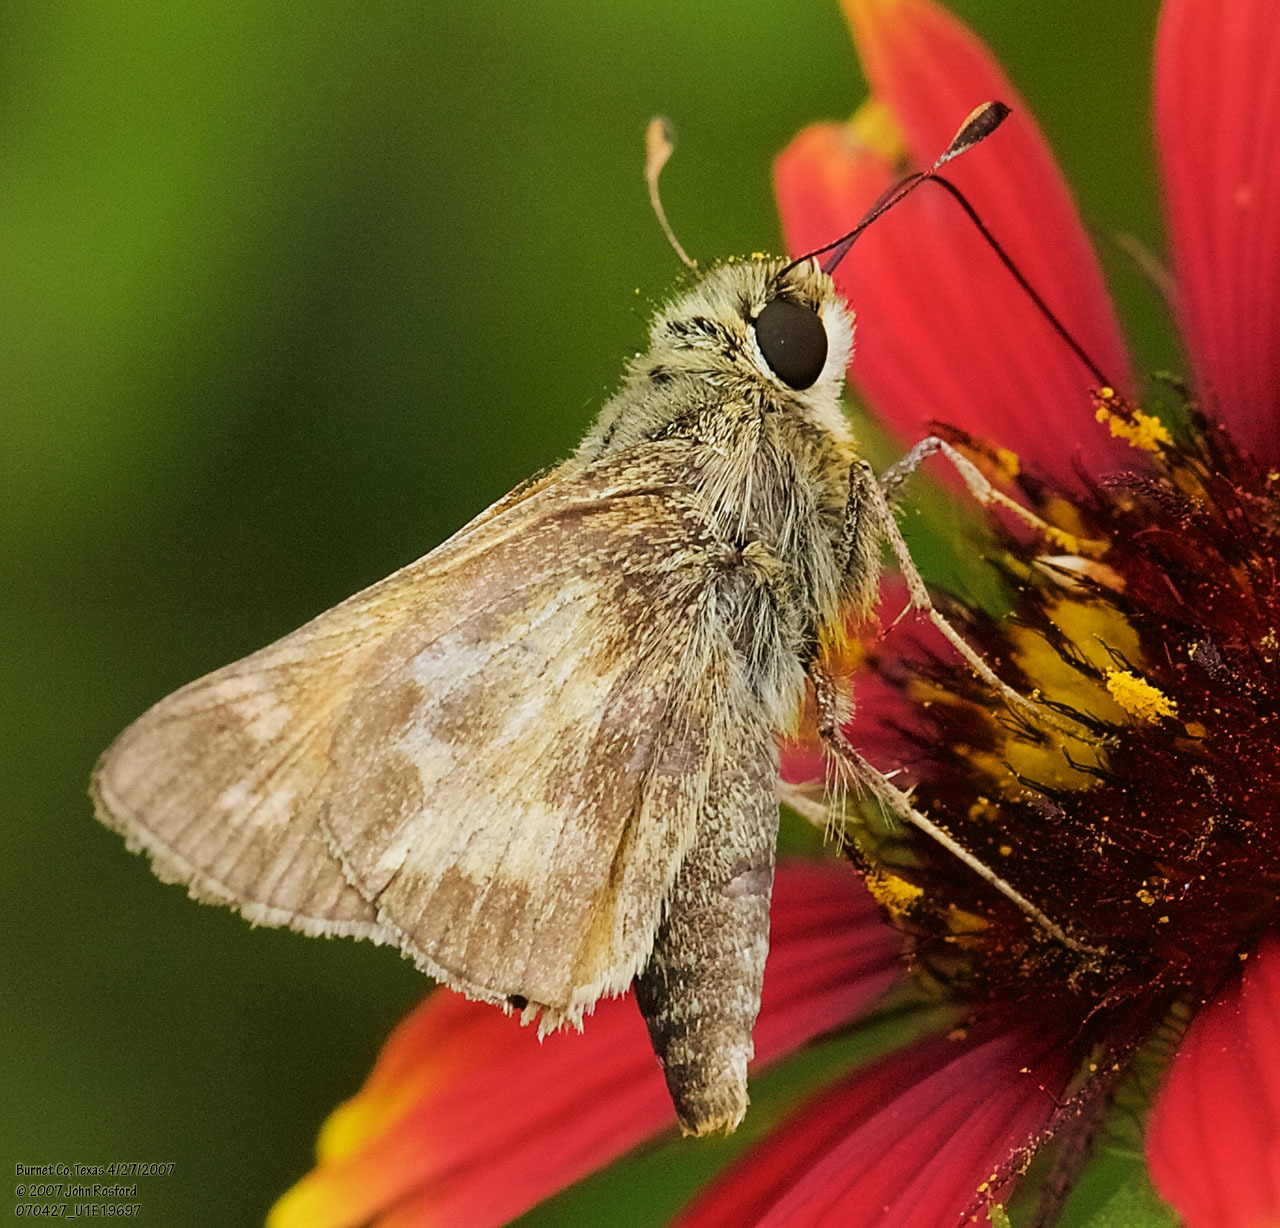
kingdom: Animalia
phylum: Arthropoda
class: Insecta
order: Lepidoptera
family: Hesperiidae
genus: Atalopedes
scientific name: Atalopedes
